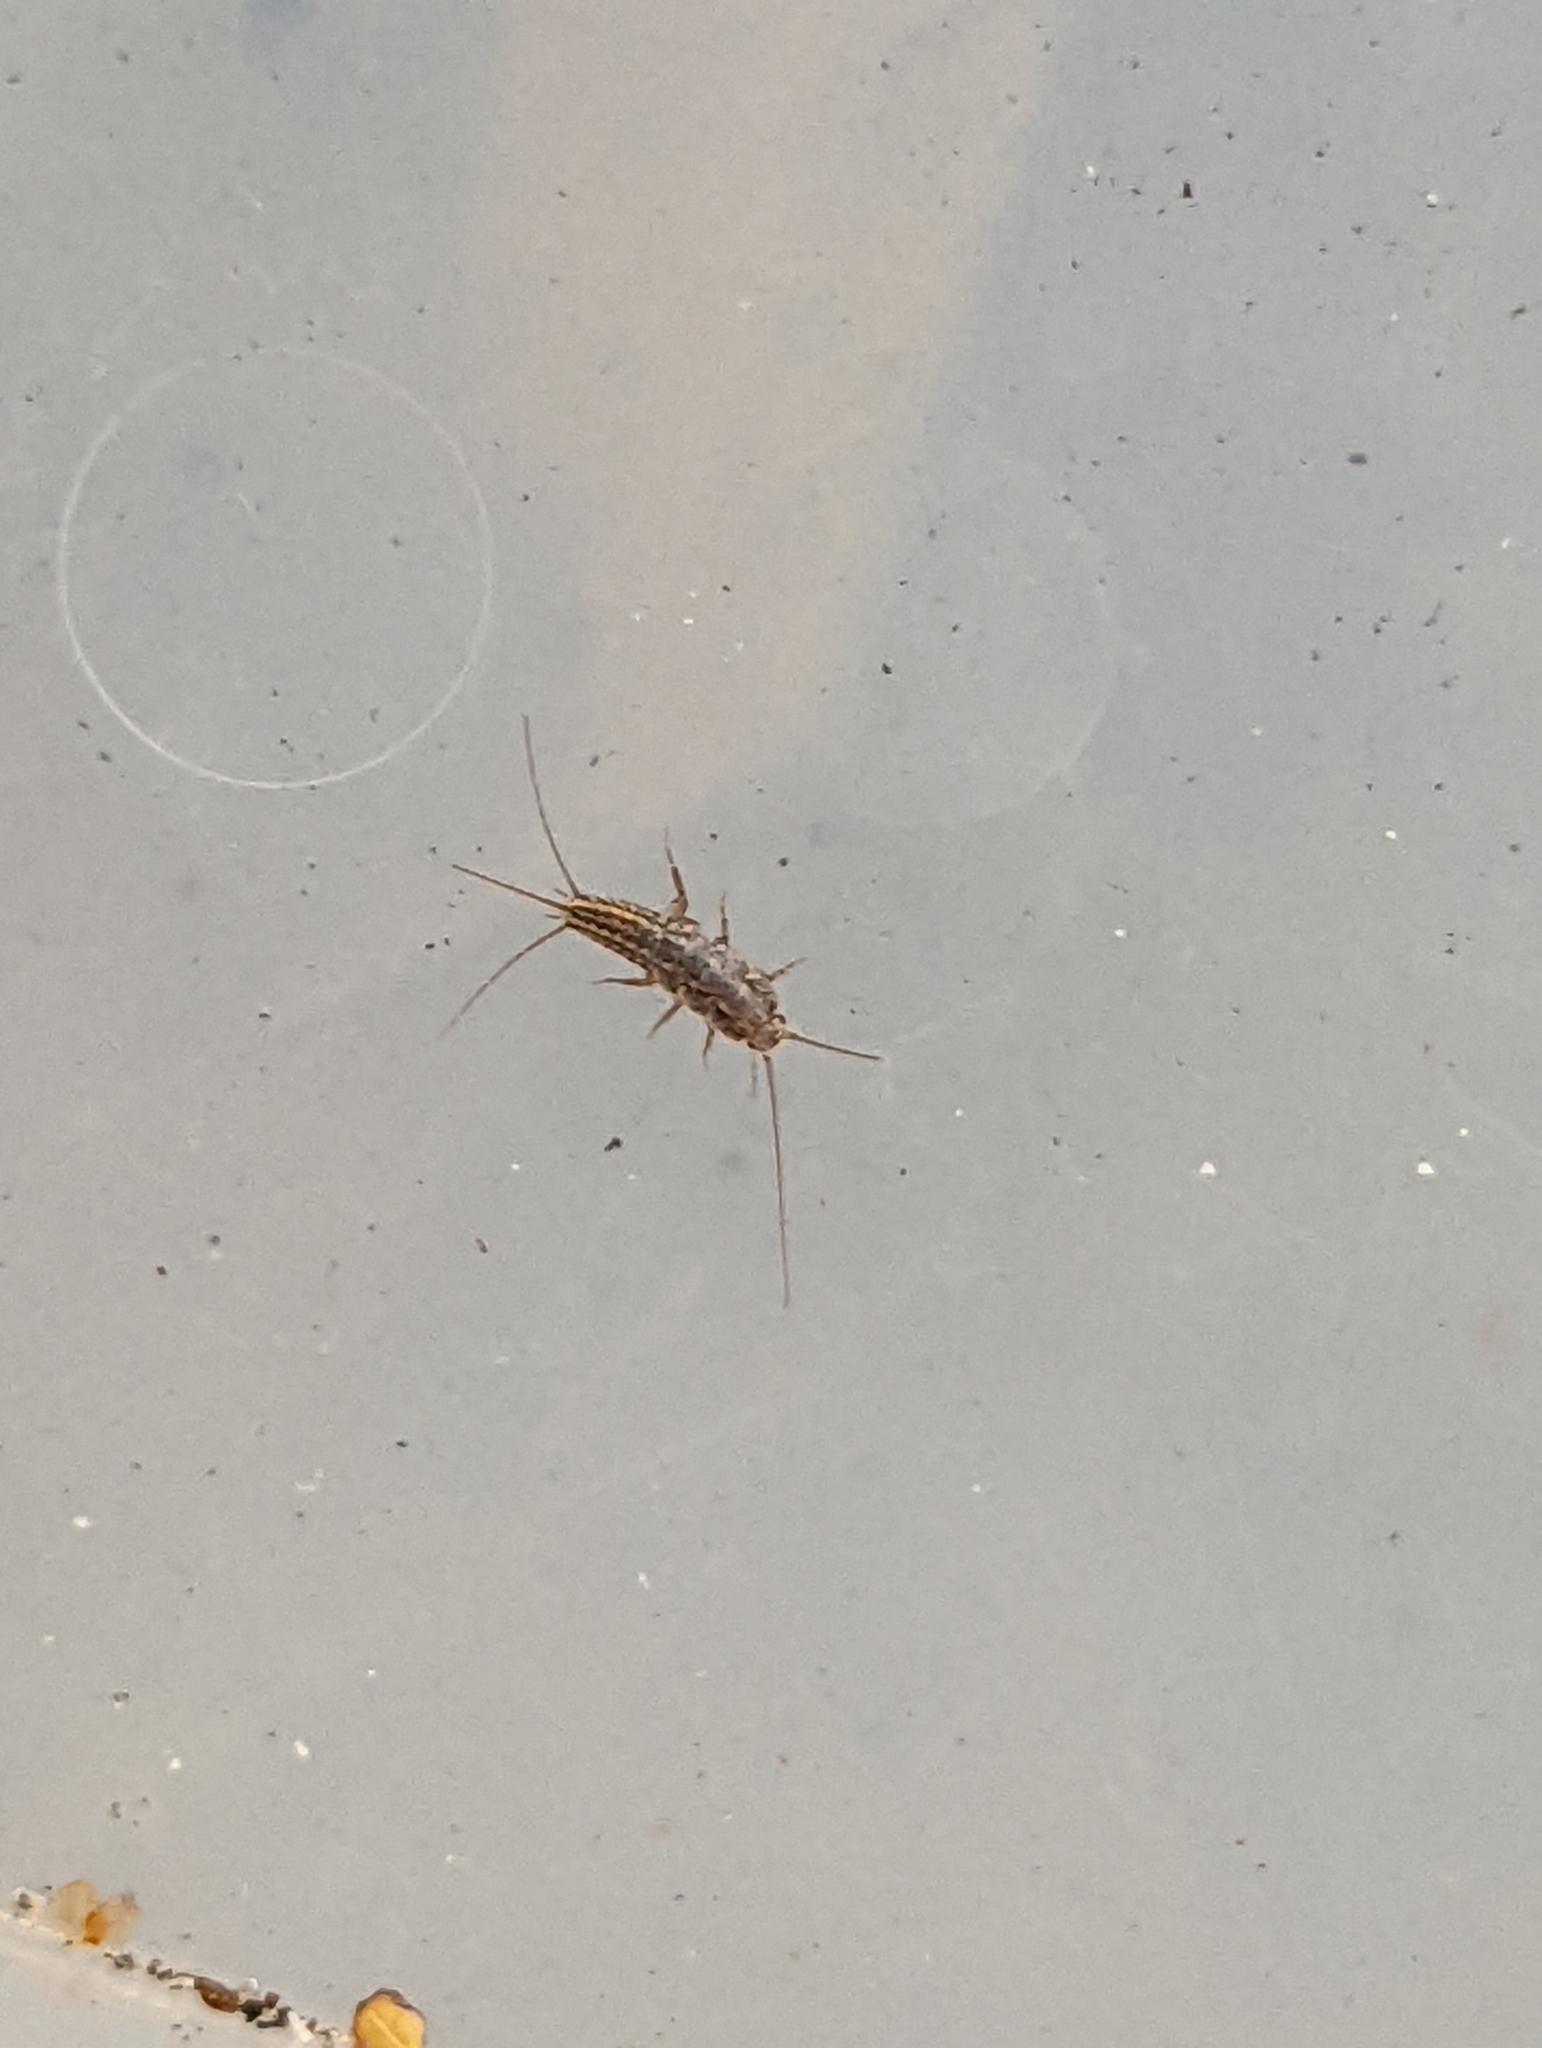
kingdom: Animalia
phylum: Arthropoda
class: Insecta
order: Zygentoma
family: Lepismatidae
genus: Ctenolepisma
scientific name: Ctenolepisma lineata
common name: Four-lined silverfish
